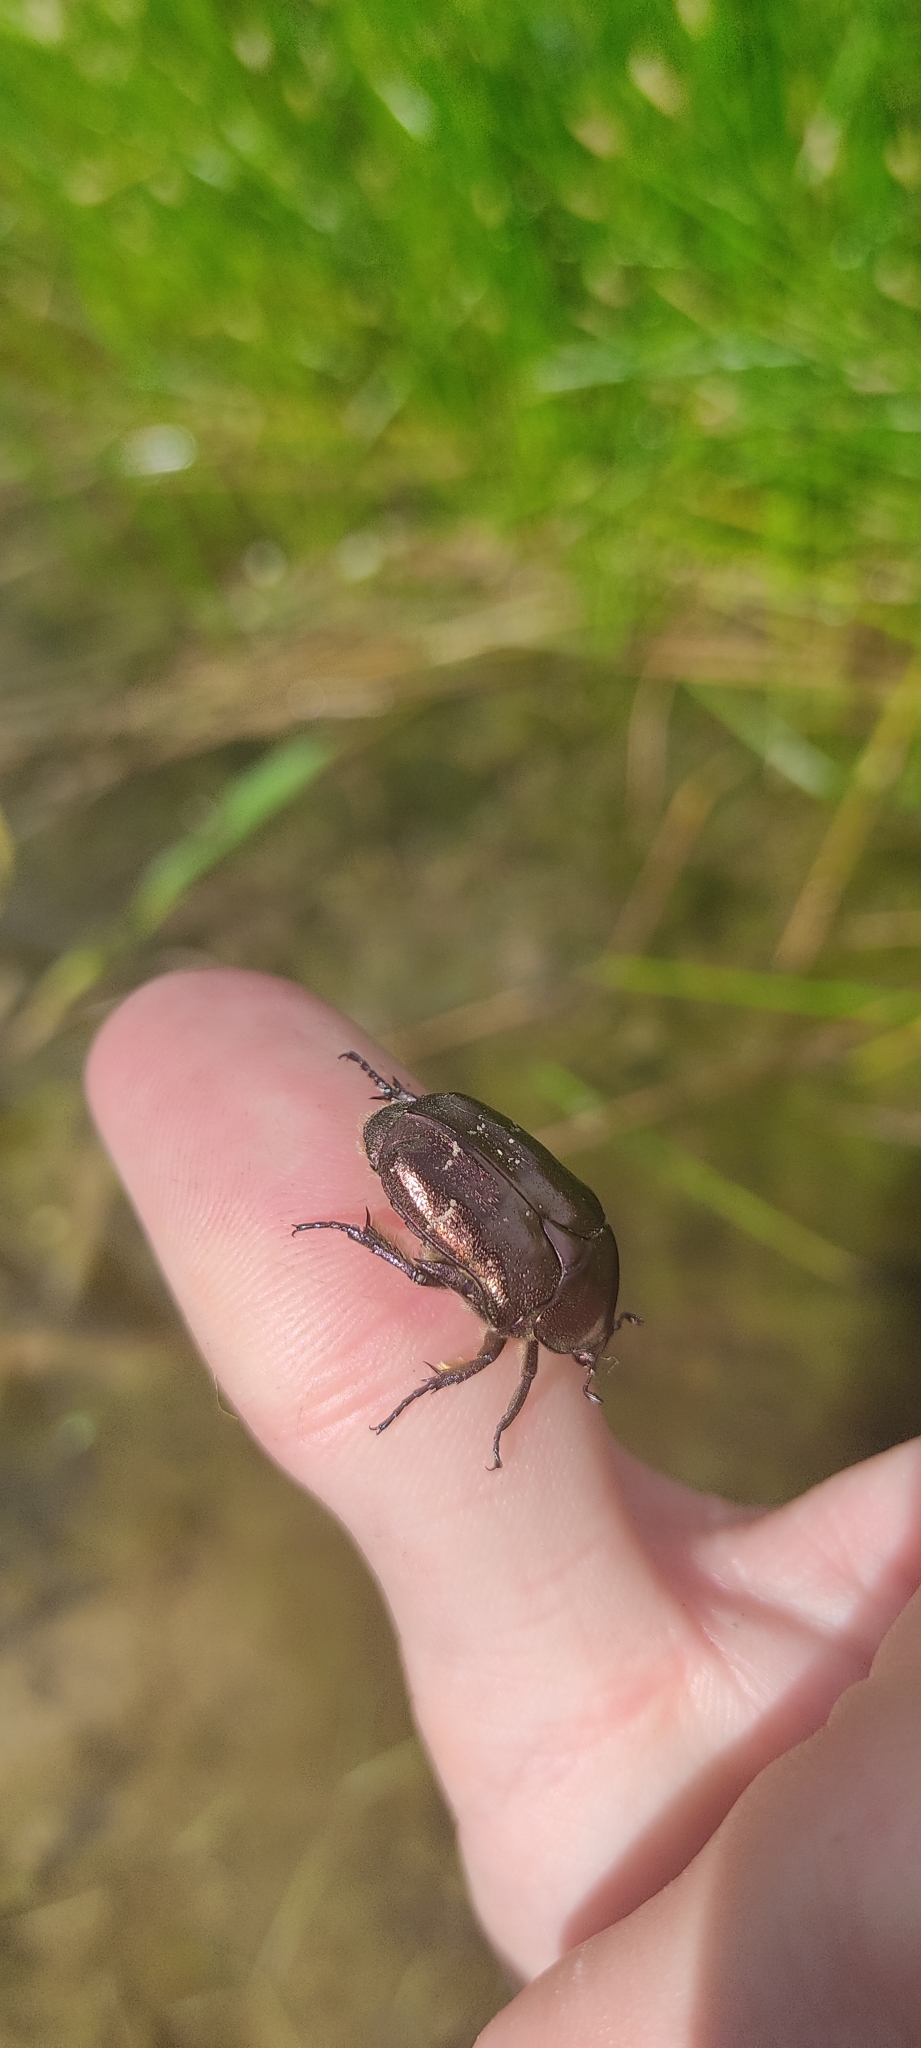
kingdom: Animalia
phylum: Arthropoda
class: Insecta
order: Coleoptera
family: Scarabaeidae
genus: Protaetia
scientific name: Protaetia cuprea
